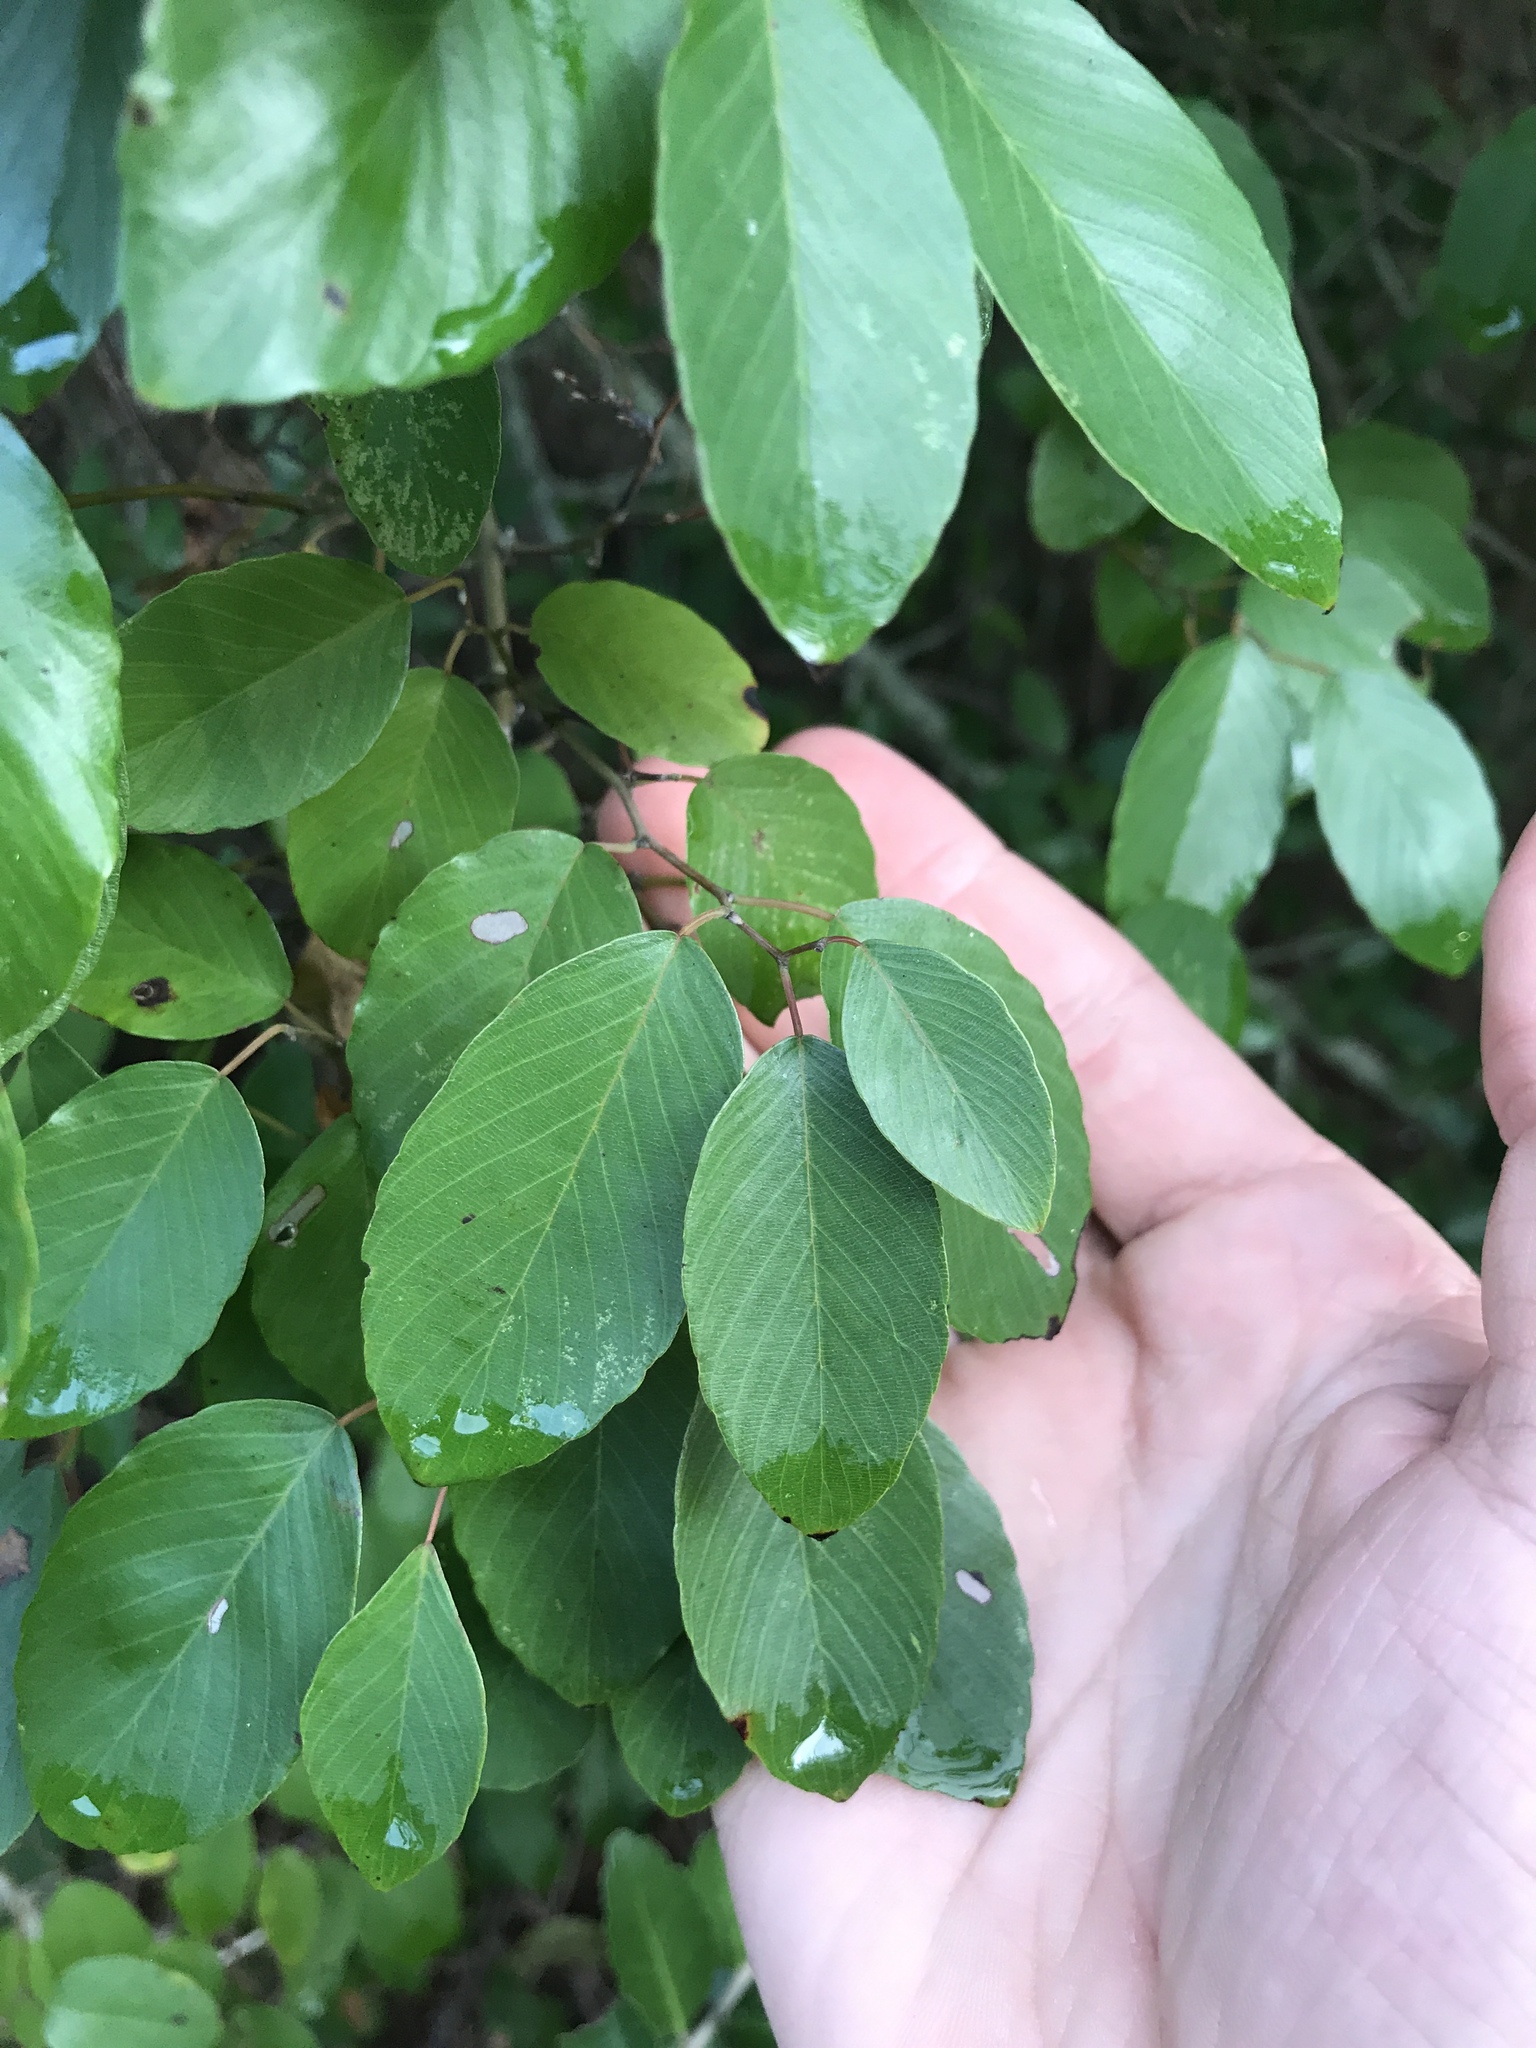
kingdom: Plantae
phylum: Tracheophyta
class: Magnoliopsida
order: Rosales
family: Rhamnaceae
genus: Berchemia
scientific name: Berchemia scandens
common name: Supplejack
